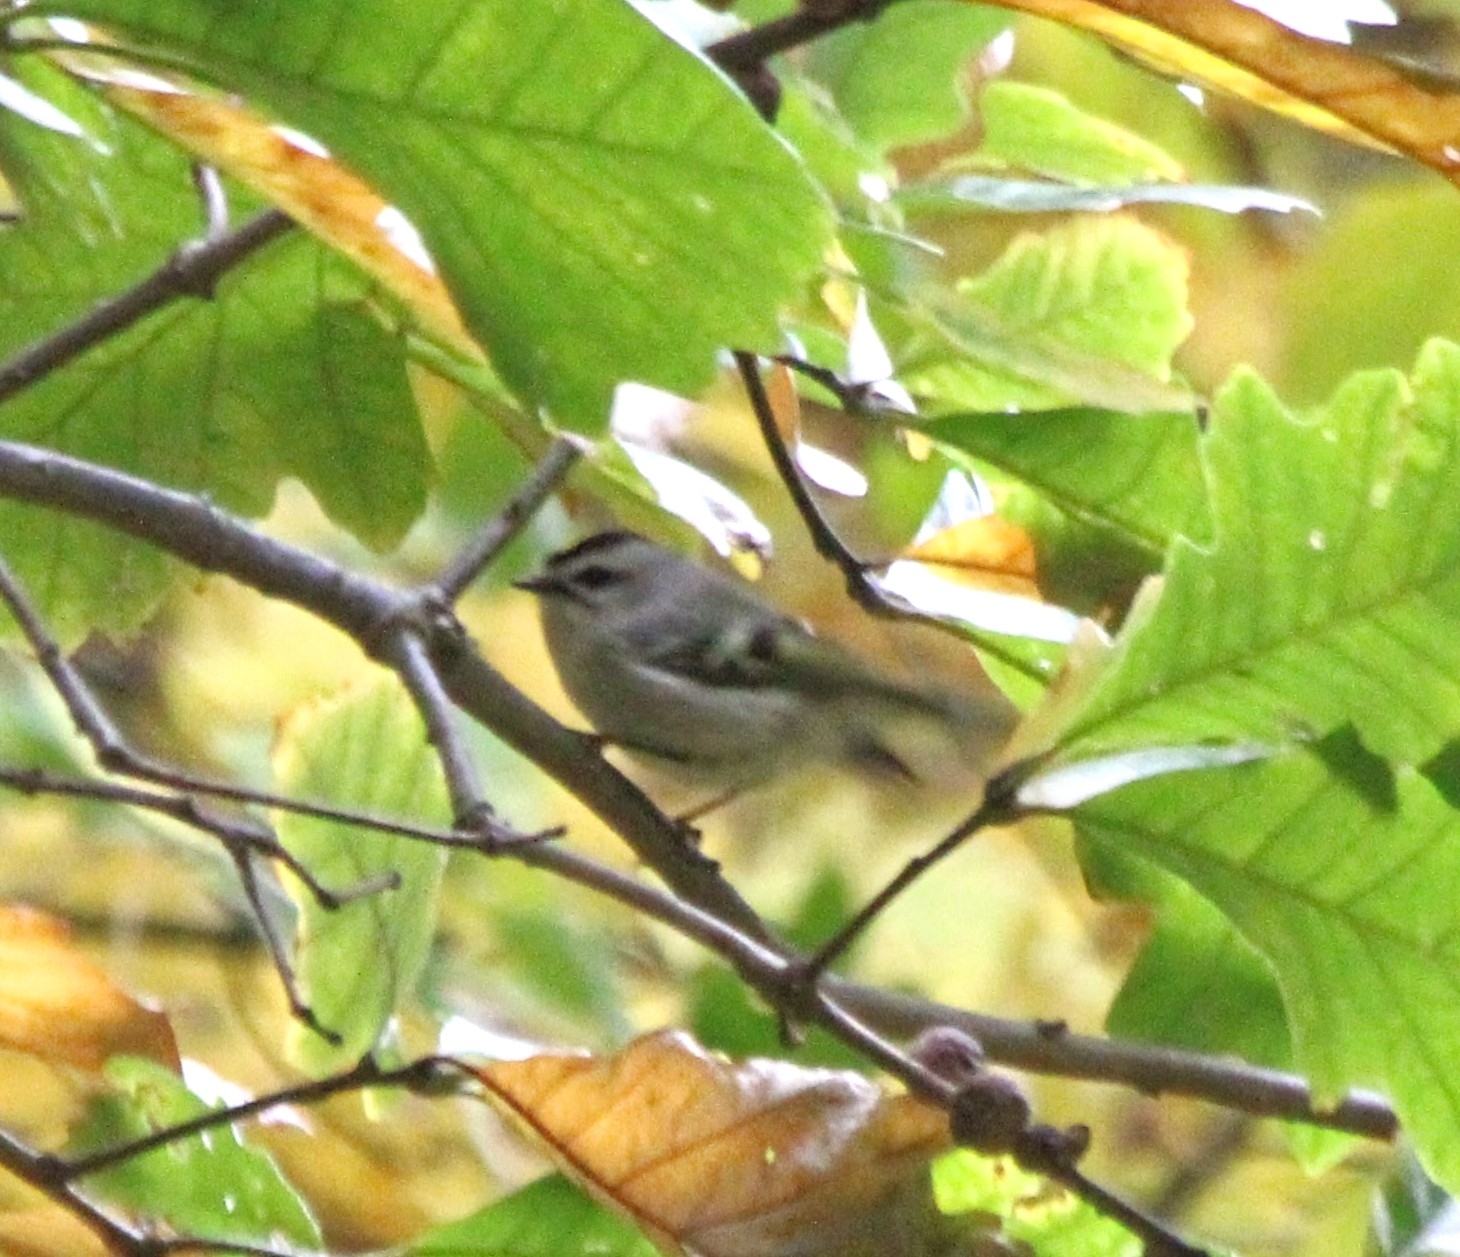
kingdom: Animalia
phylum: Chordata
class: Aves
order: Passeriformes
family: Regulidae
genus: Regulus
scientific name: Regulus satrapa
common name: Golden-crowned kinglet
